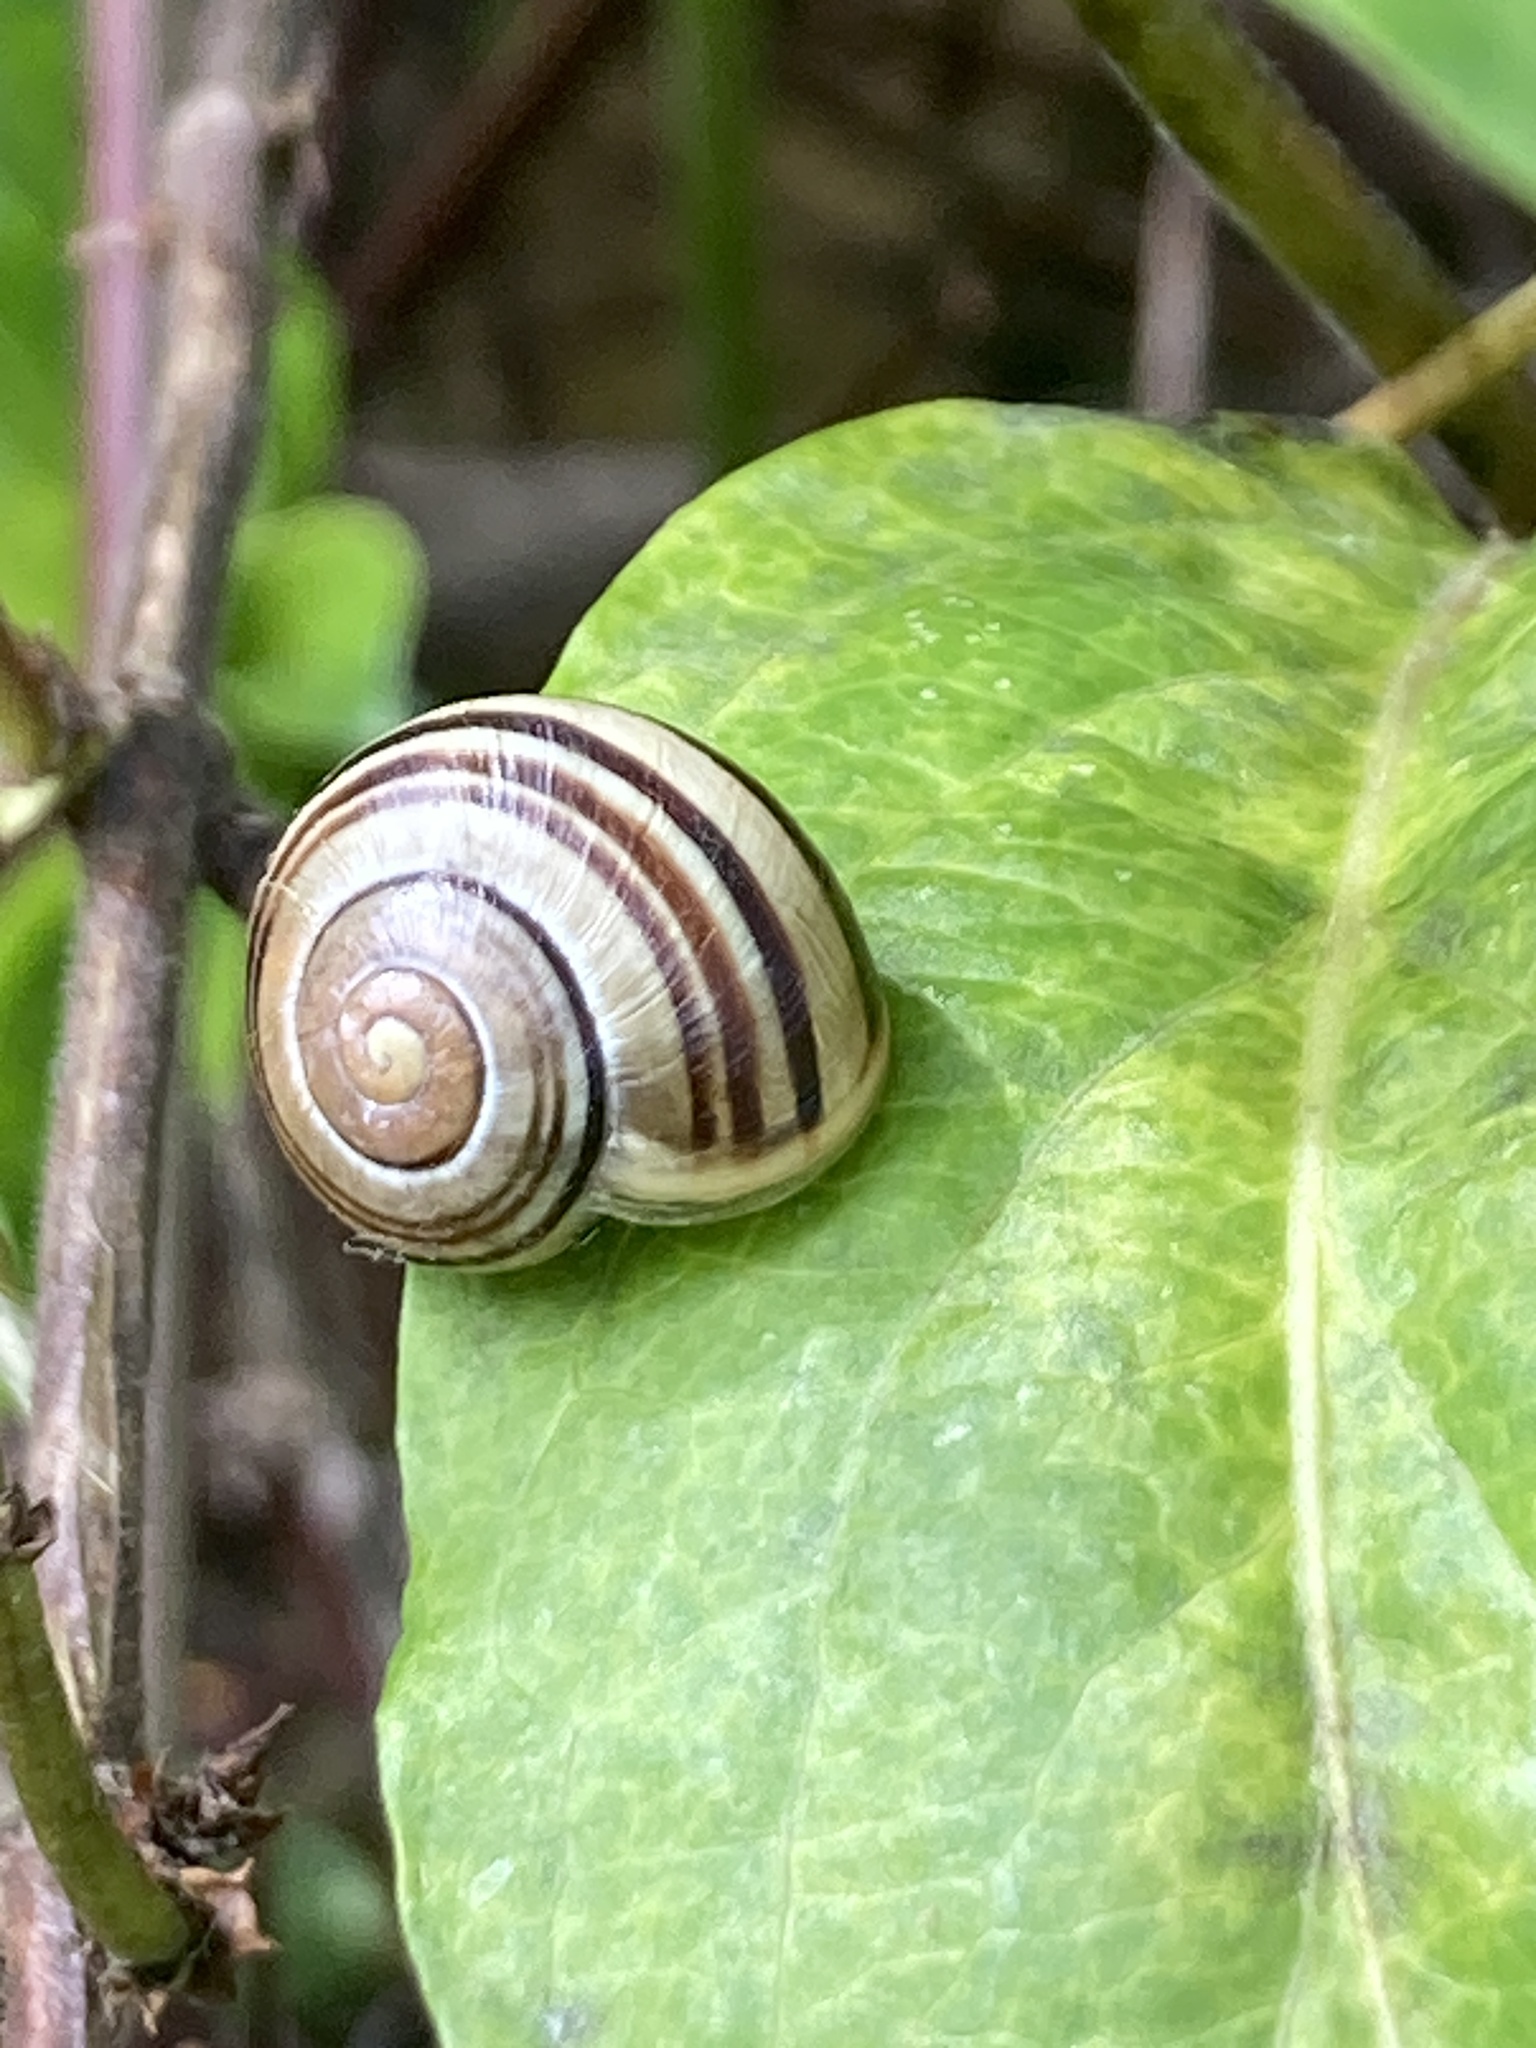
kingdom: Animalia
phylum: Mollusca
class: Gastropoda
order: Stylommatophora
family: Helicidae
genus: Cepaea
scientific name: Cepaea
